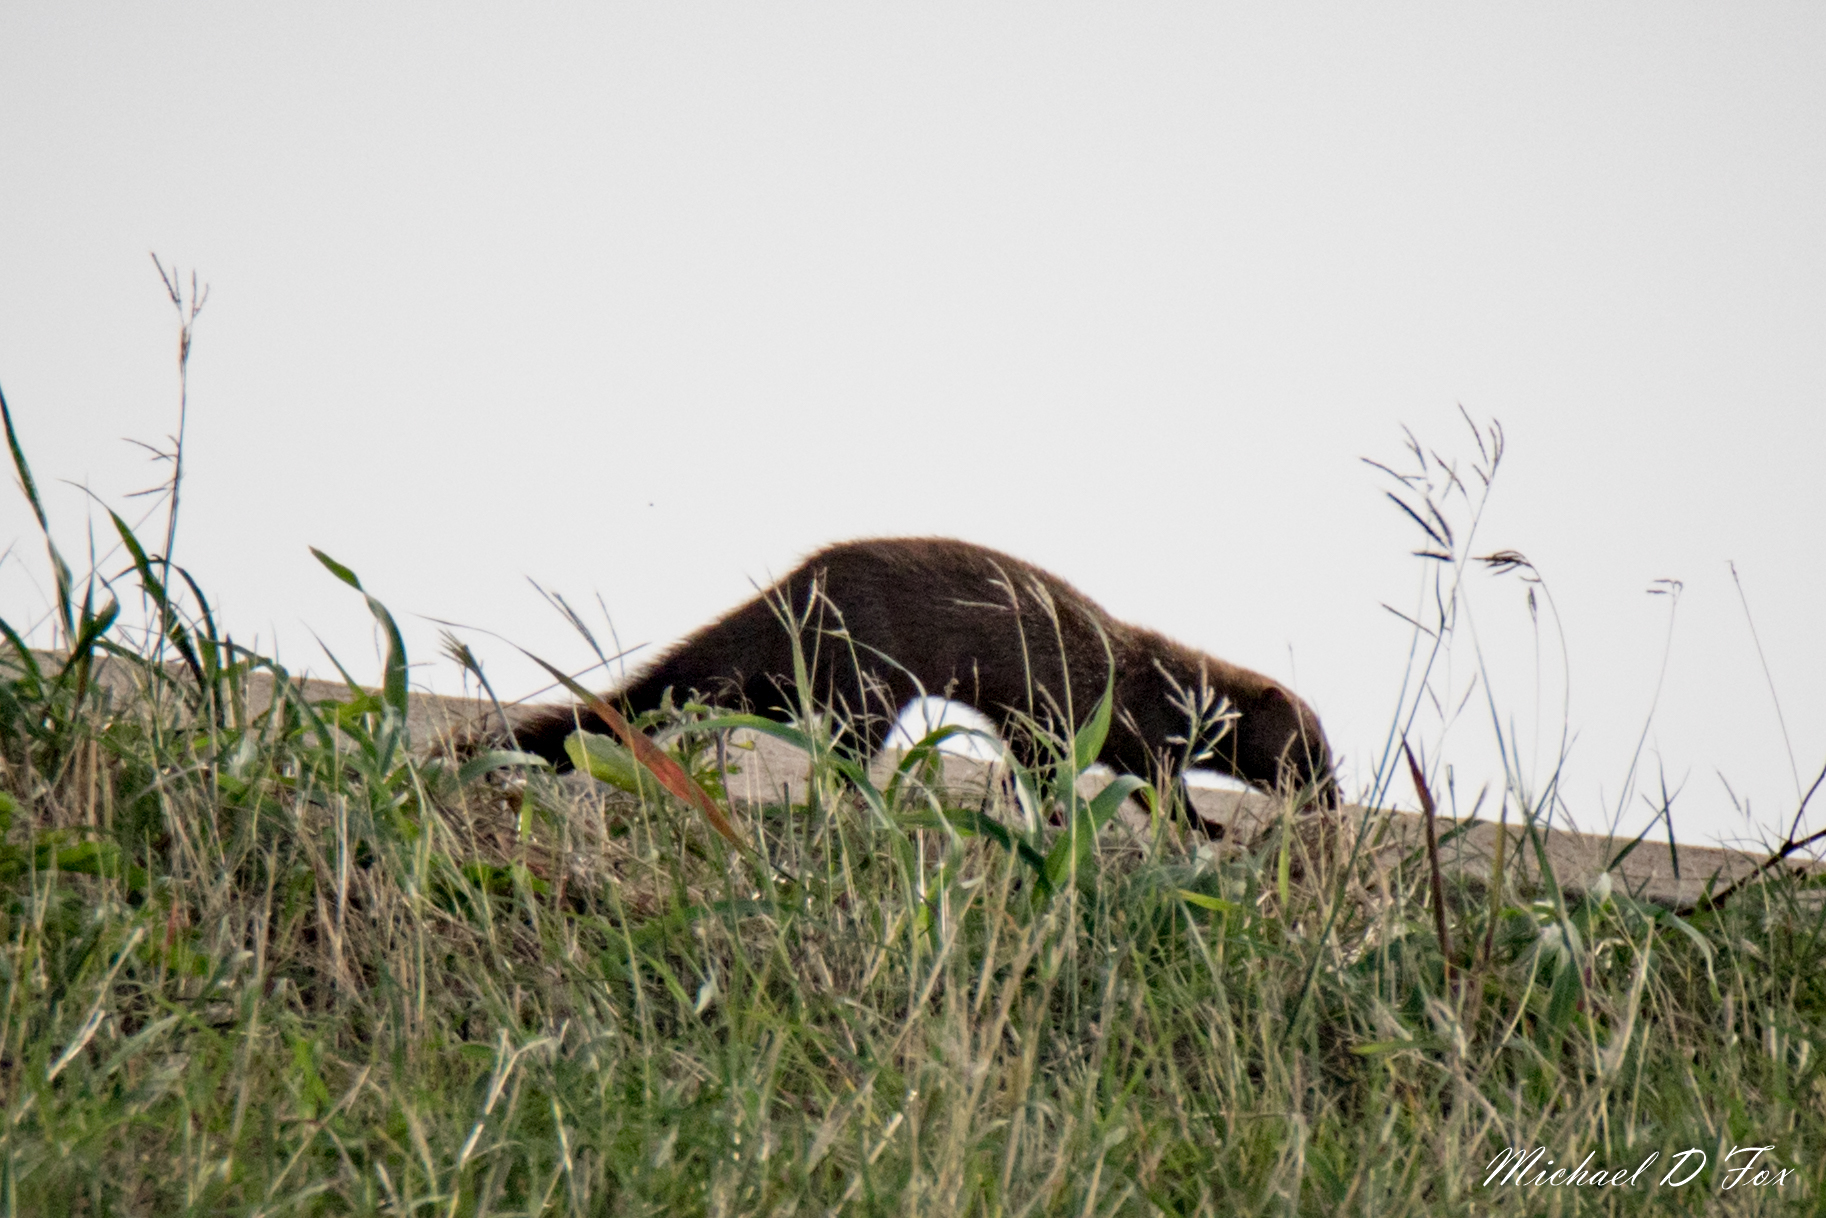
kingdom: Animalia
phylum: Chordata
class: Mammalia
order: Carnivora
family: Mustelidae
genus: Mustela
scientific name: Mustela
